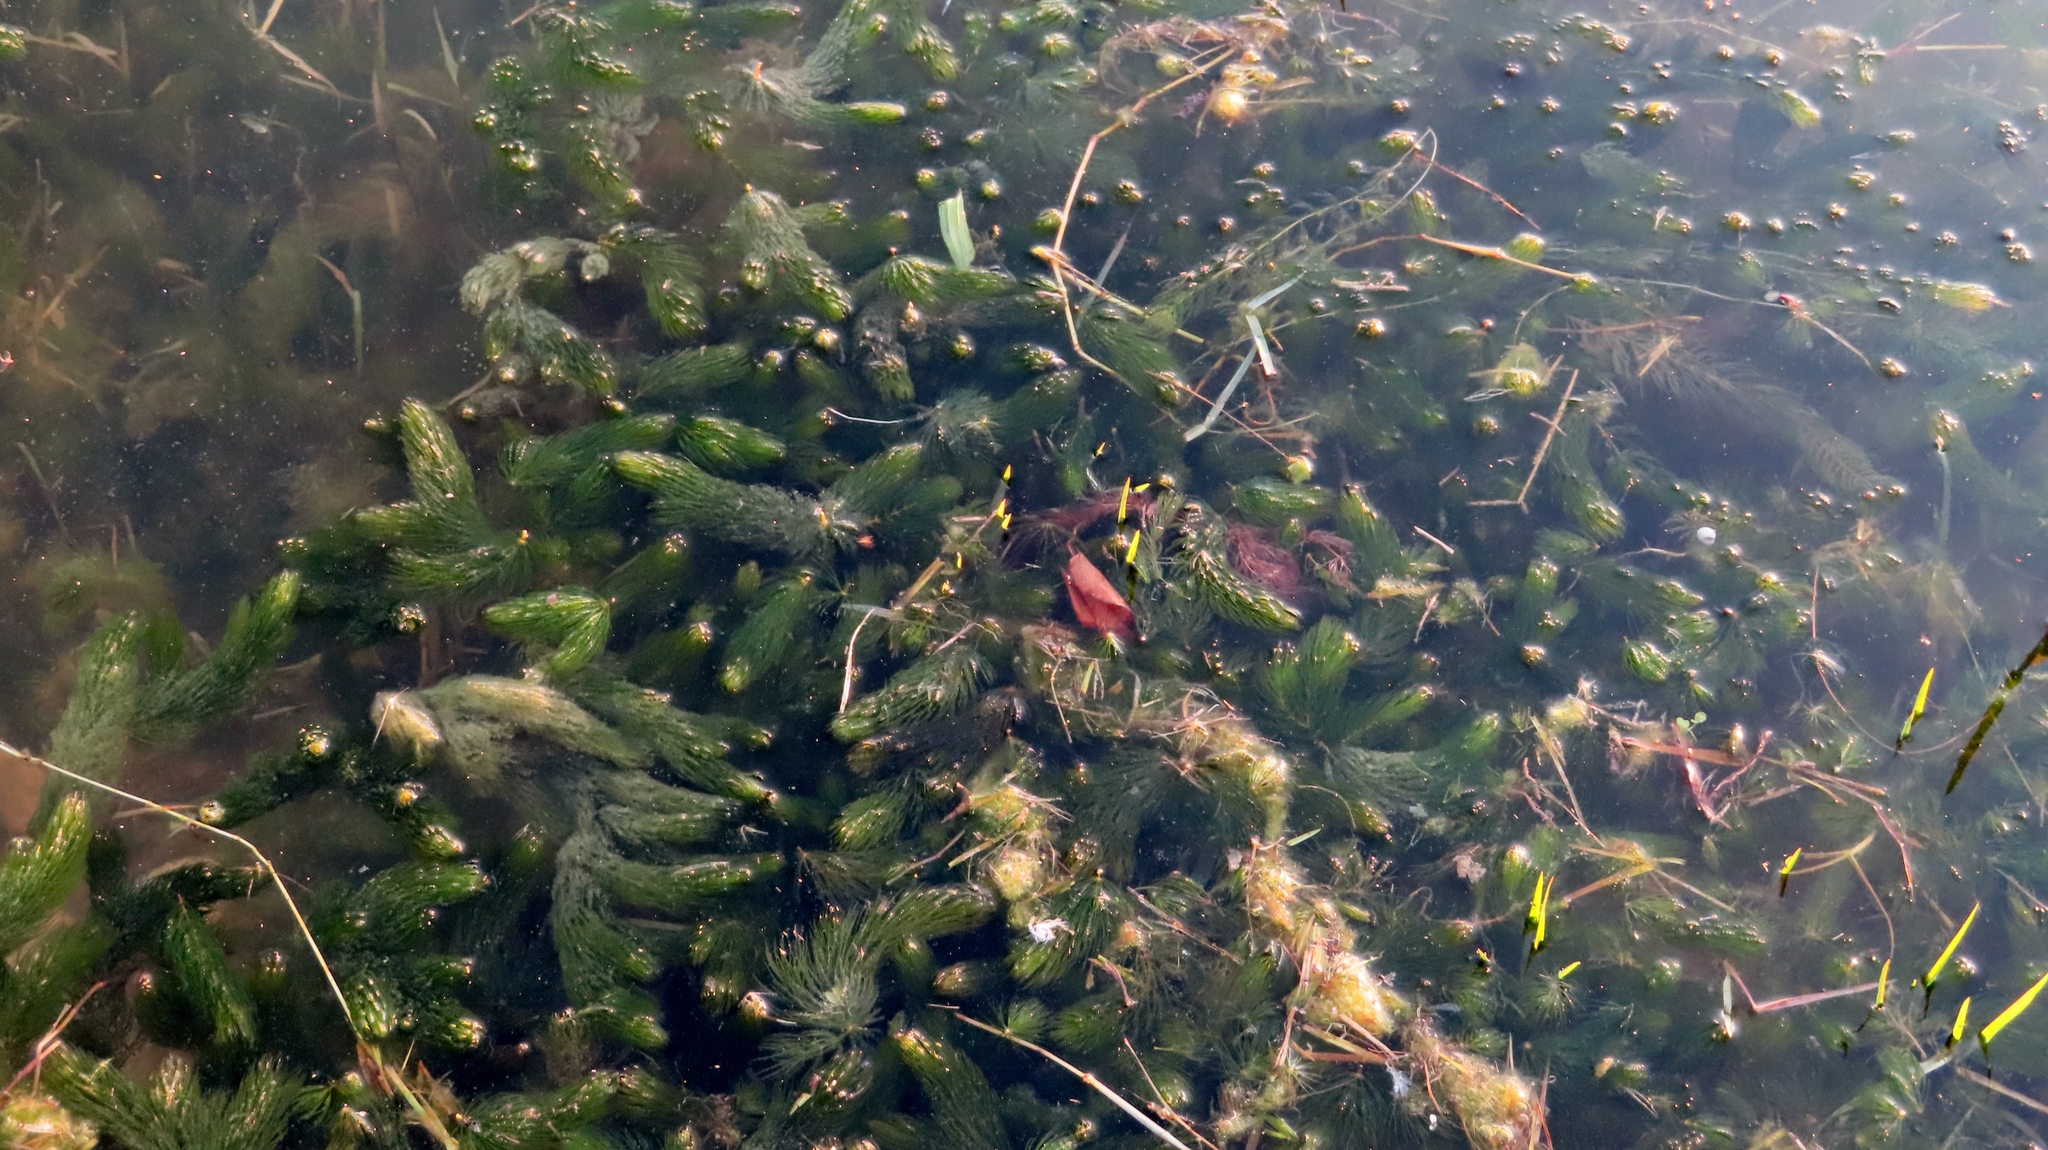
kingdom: Plantae
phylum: Tracheophyta
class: Magnoliopsida
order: Ceratophyllales
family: Ceratophyllaceae
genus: Ceratophyllum
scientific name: Ceratophyllum demersum
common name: Rigid hornwort
